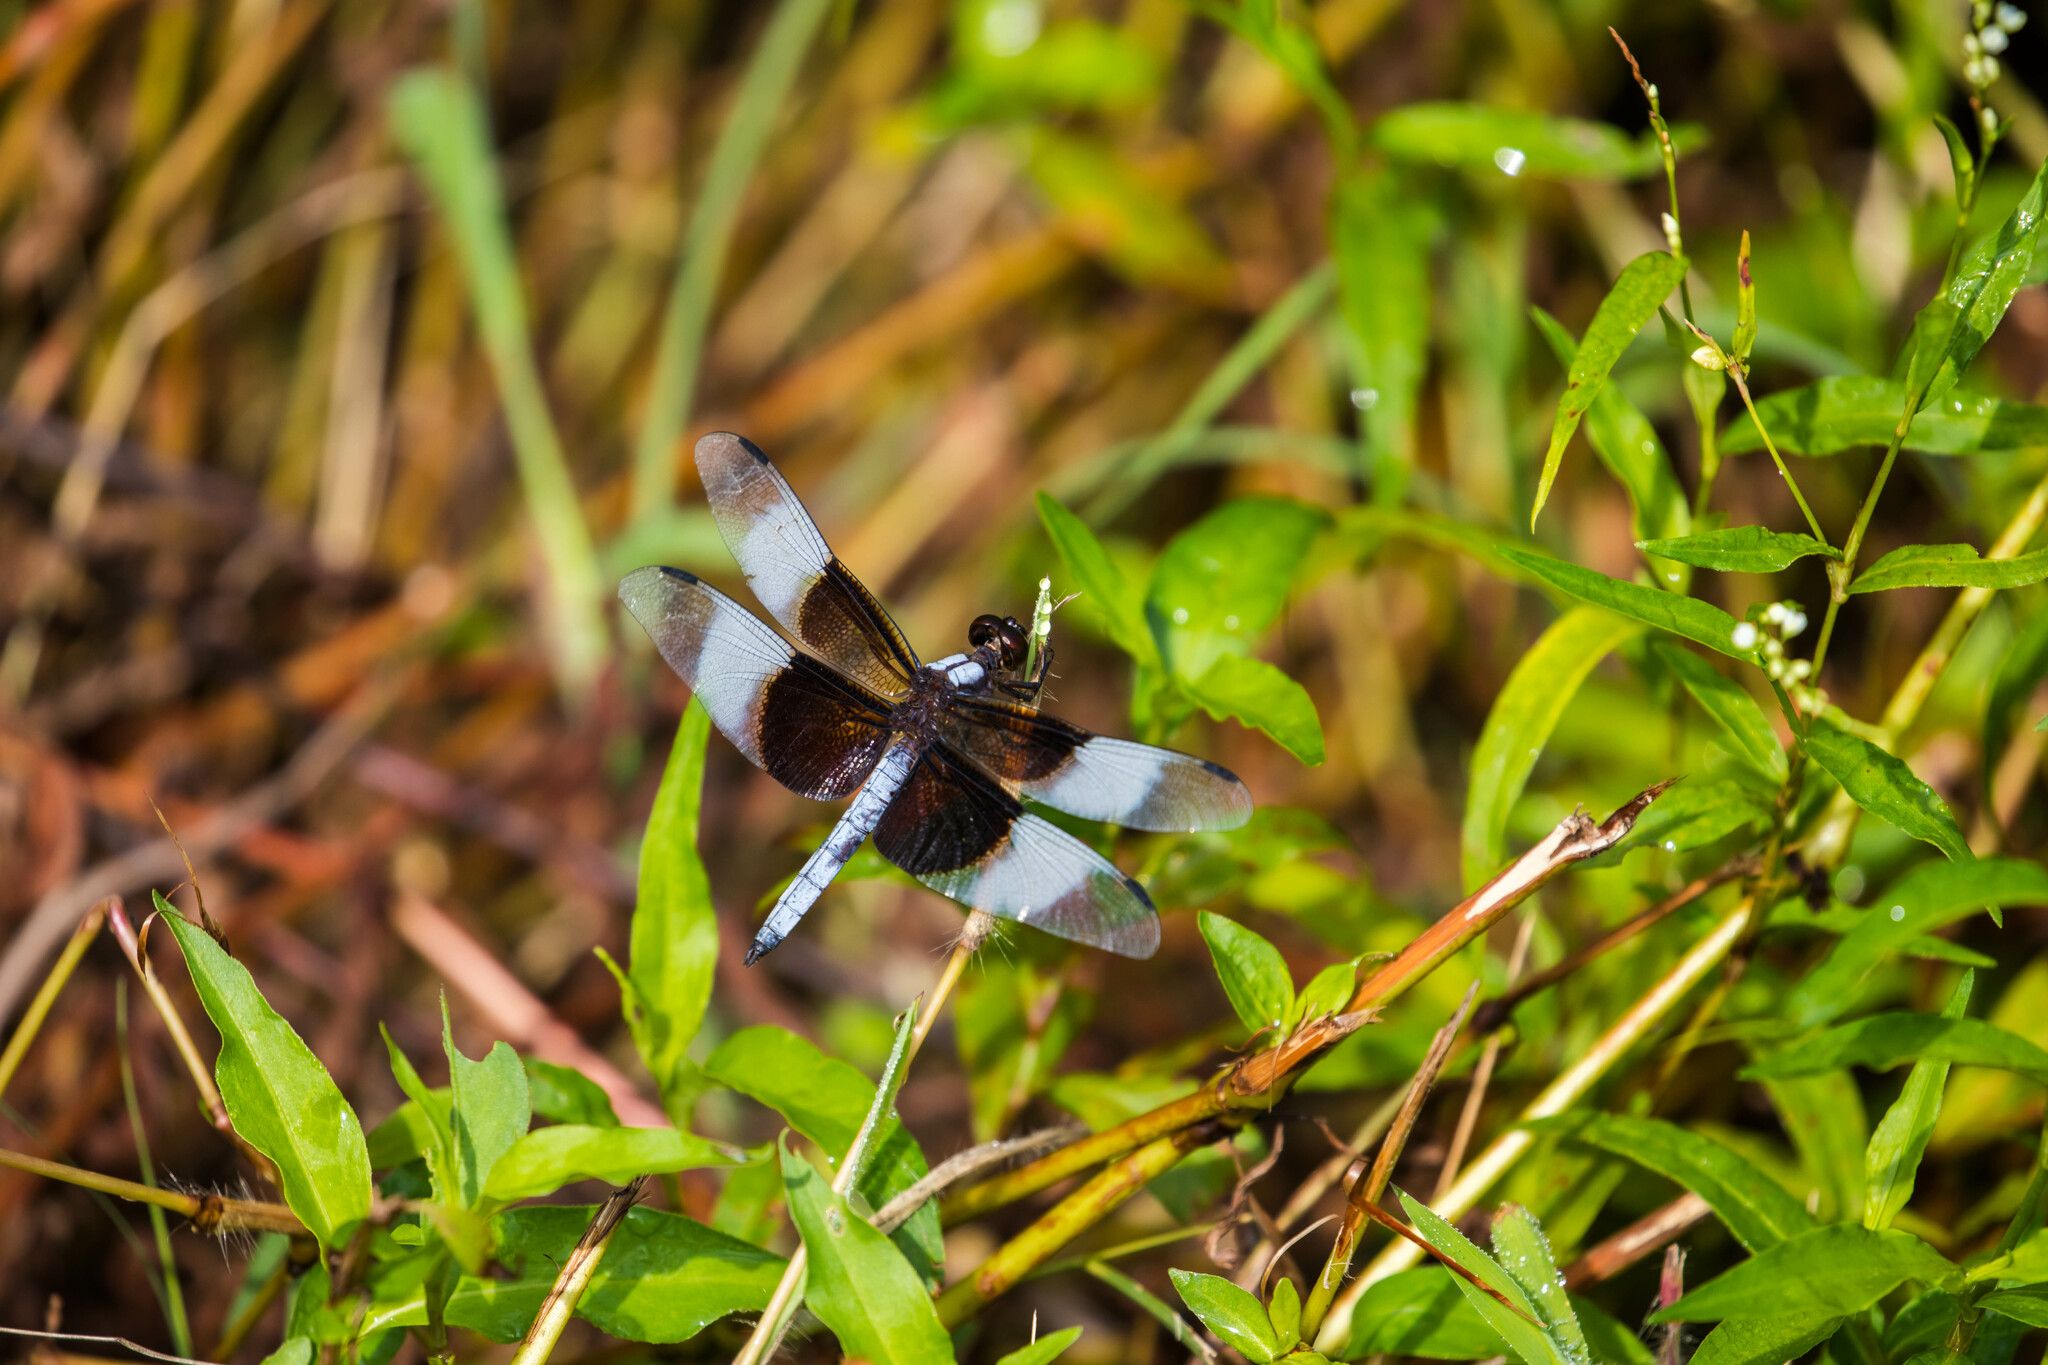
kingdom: Animalia
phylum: Arthropoda
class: Insecta
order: Odonata
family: Libellulidae
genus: Libellula
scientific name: Libellula luctuosa
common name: Widow skimmer
